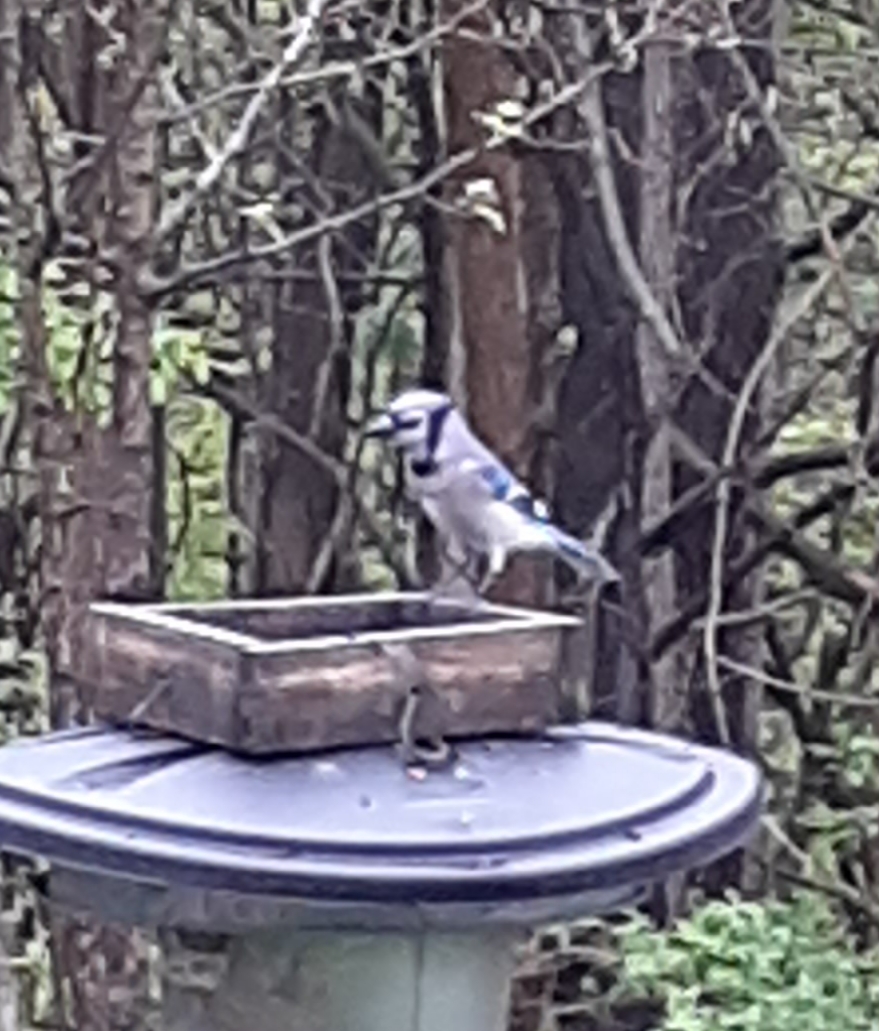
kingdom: Animalia
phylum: Chordata
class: Aves
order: Passeriformes
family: Corvidae
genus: Cyanocitta
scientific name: Cyanocitta cristata
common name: Blue jay
